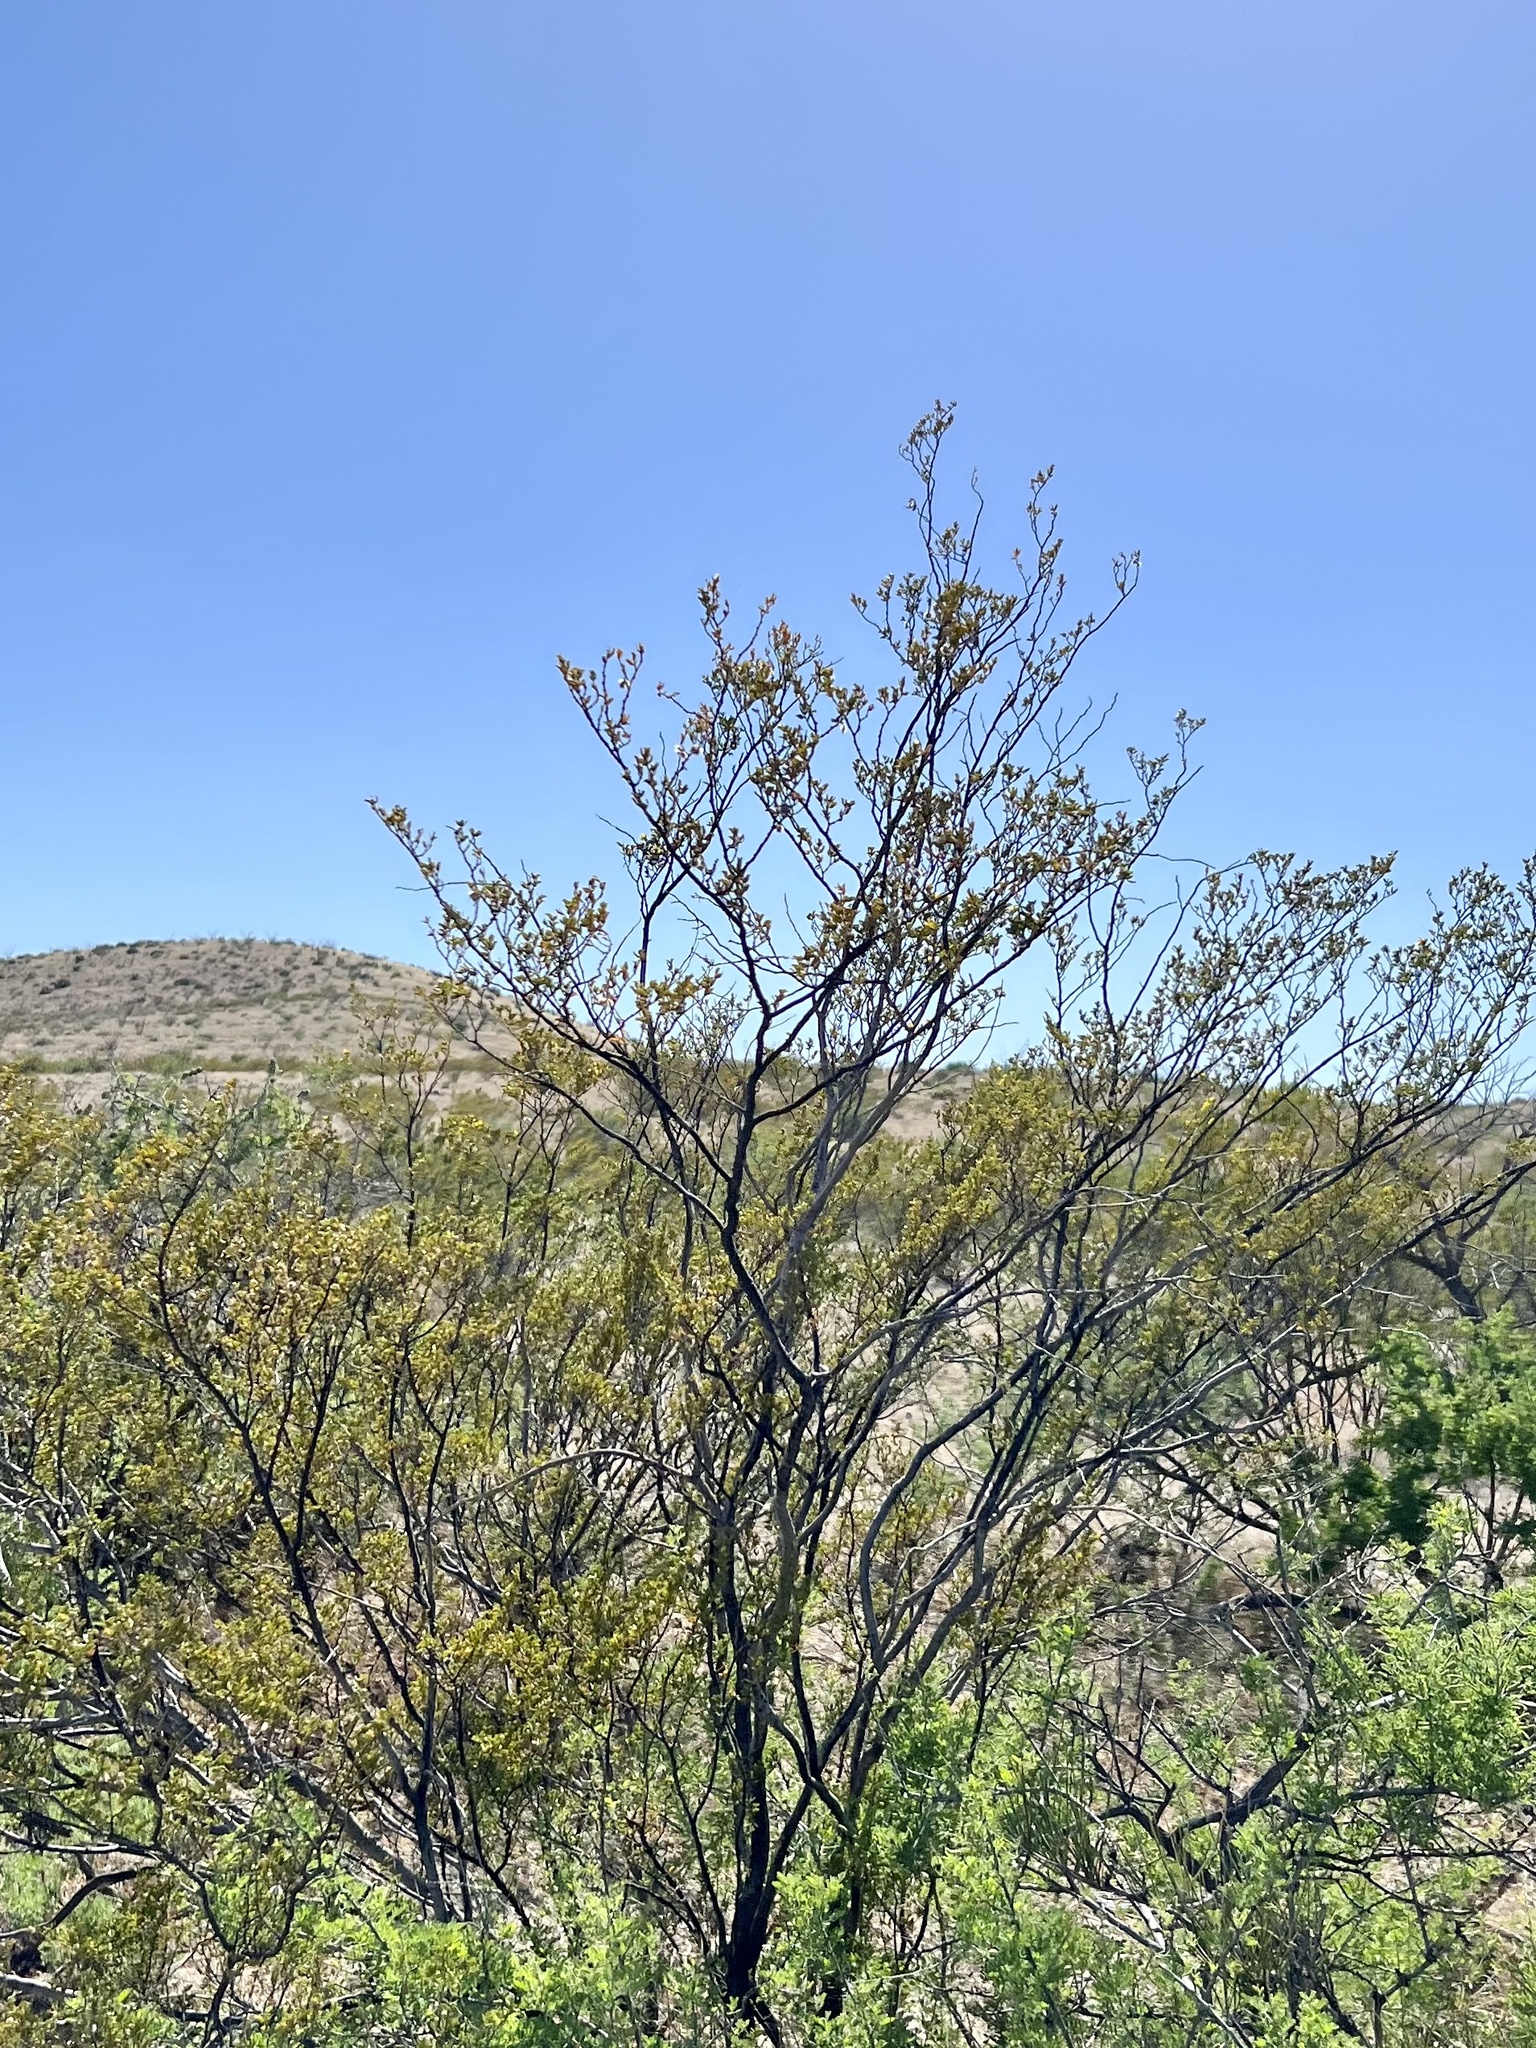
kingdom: Plantae
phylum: Tracheophyta
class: Magnoliopsida
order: Zygophyllales
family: Zygophyllaceae
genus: Larrea
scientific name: Larrea tridentata
